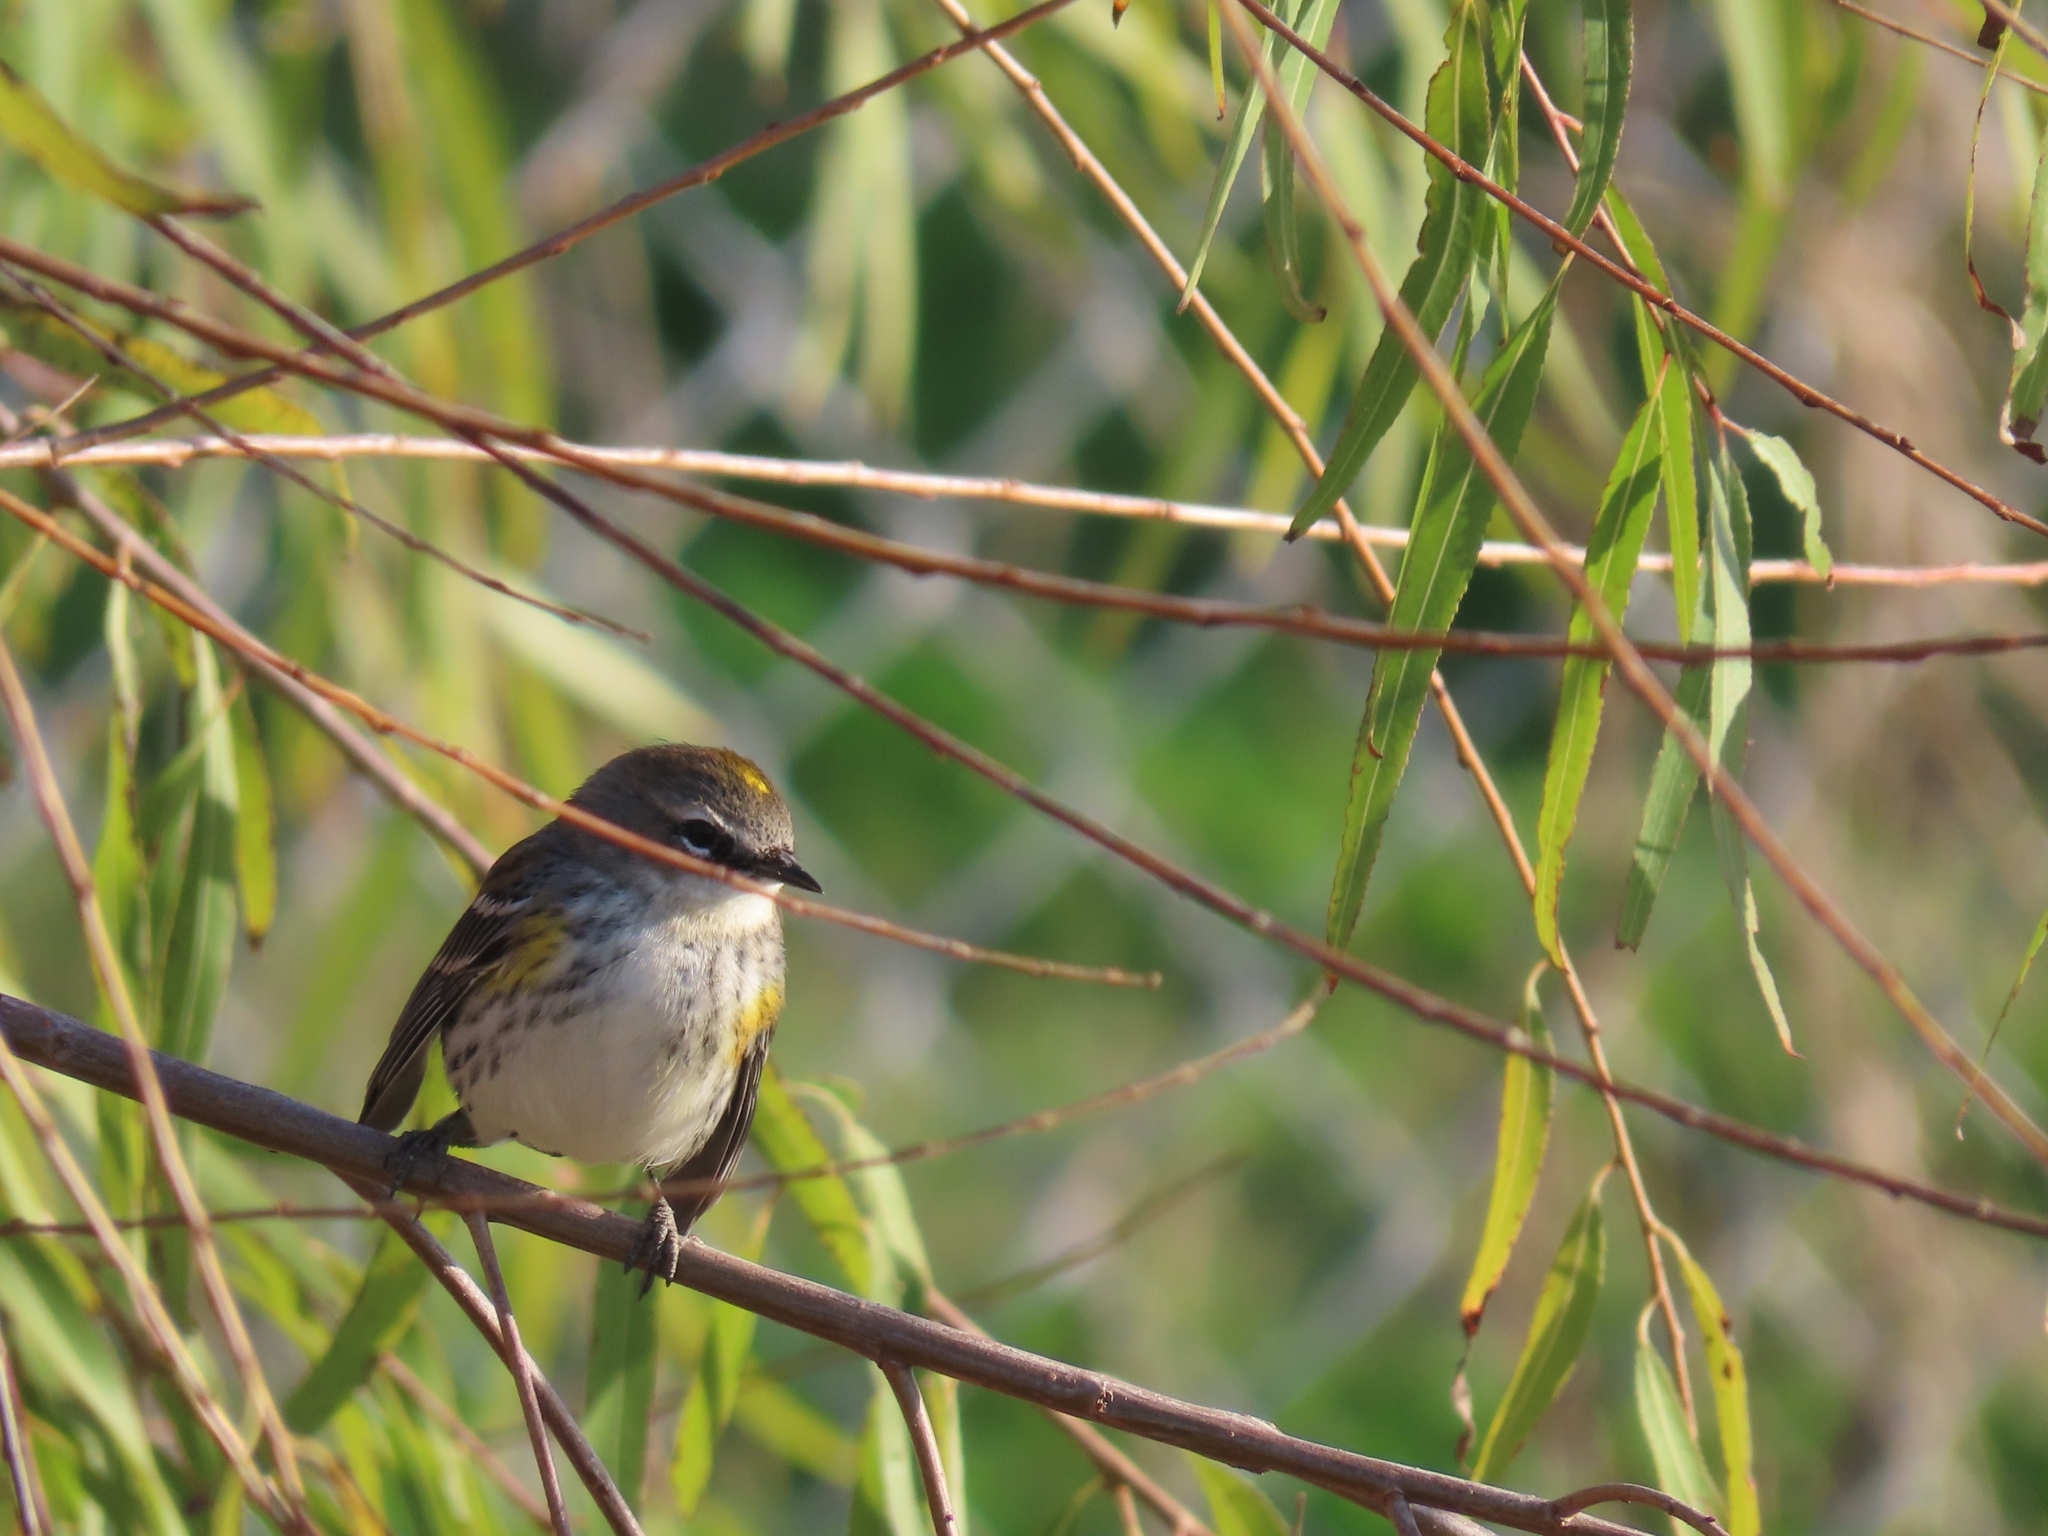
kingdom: Animalia
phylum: Chordata
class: Aves
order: Passeriformes
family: Parulidae
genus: Setophaga
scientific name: Setophaga coronata
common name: Myrtle warbler
